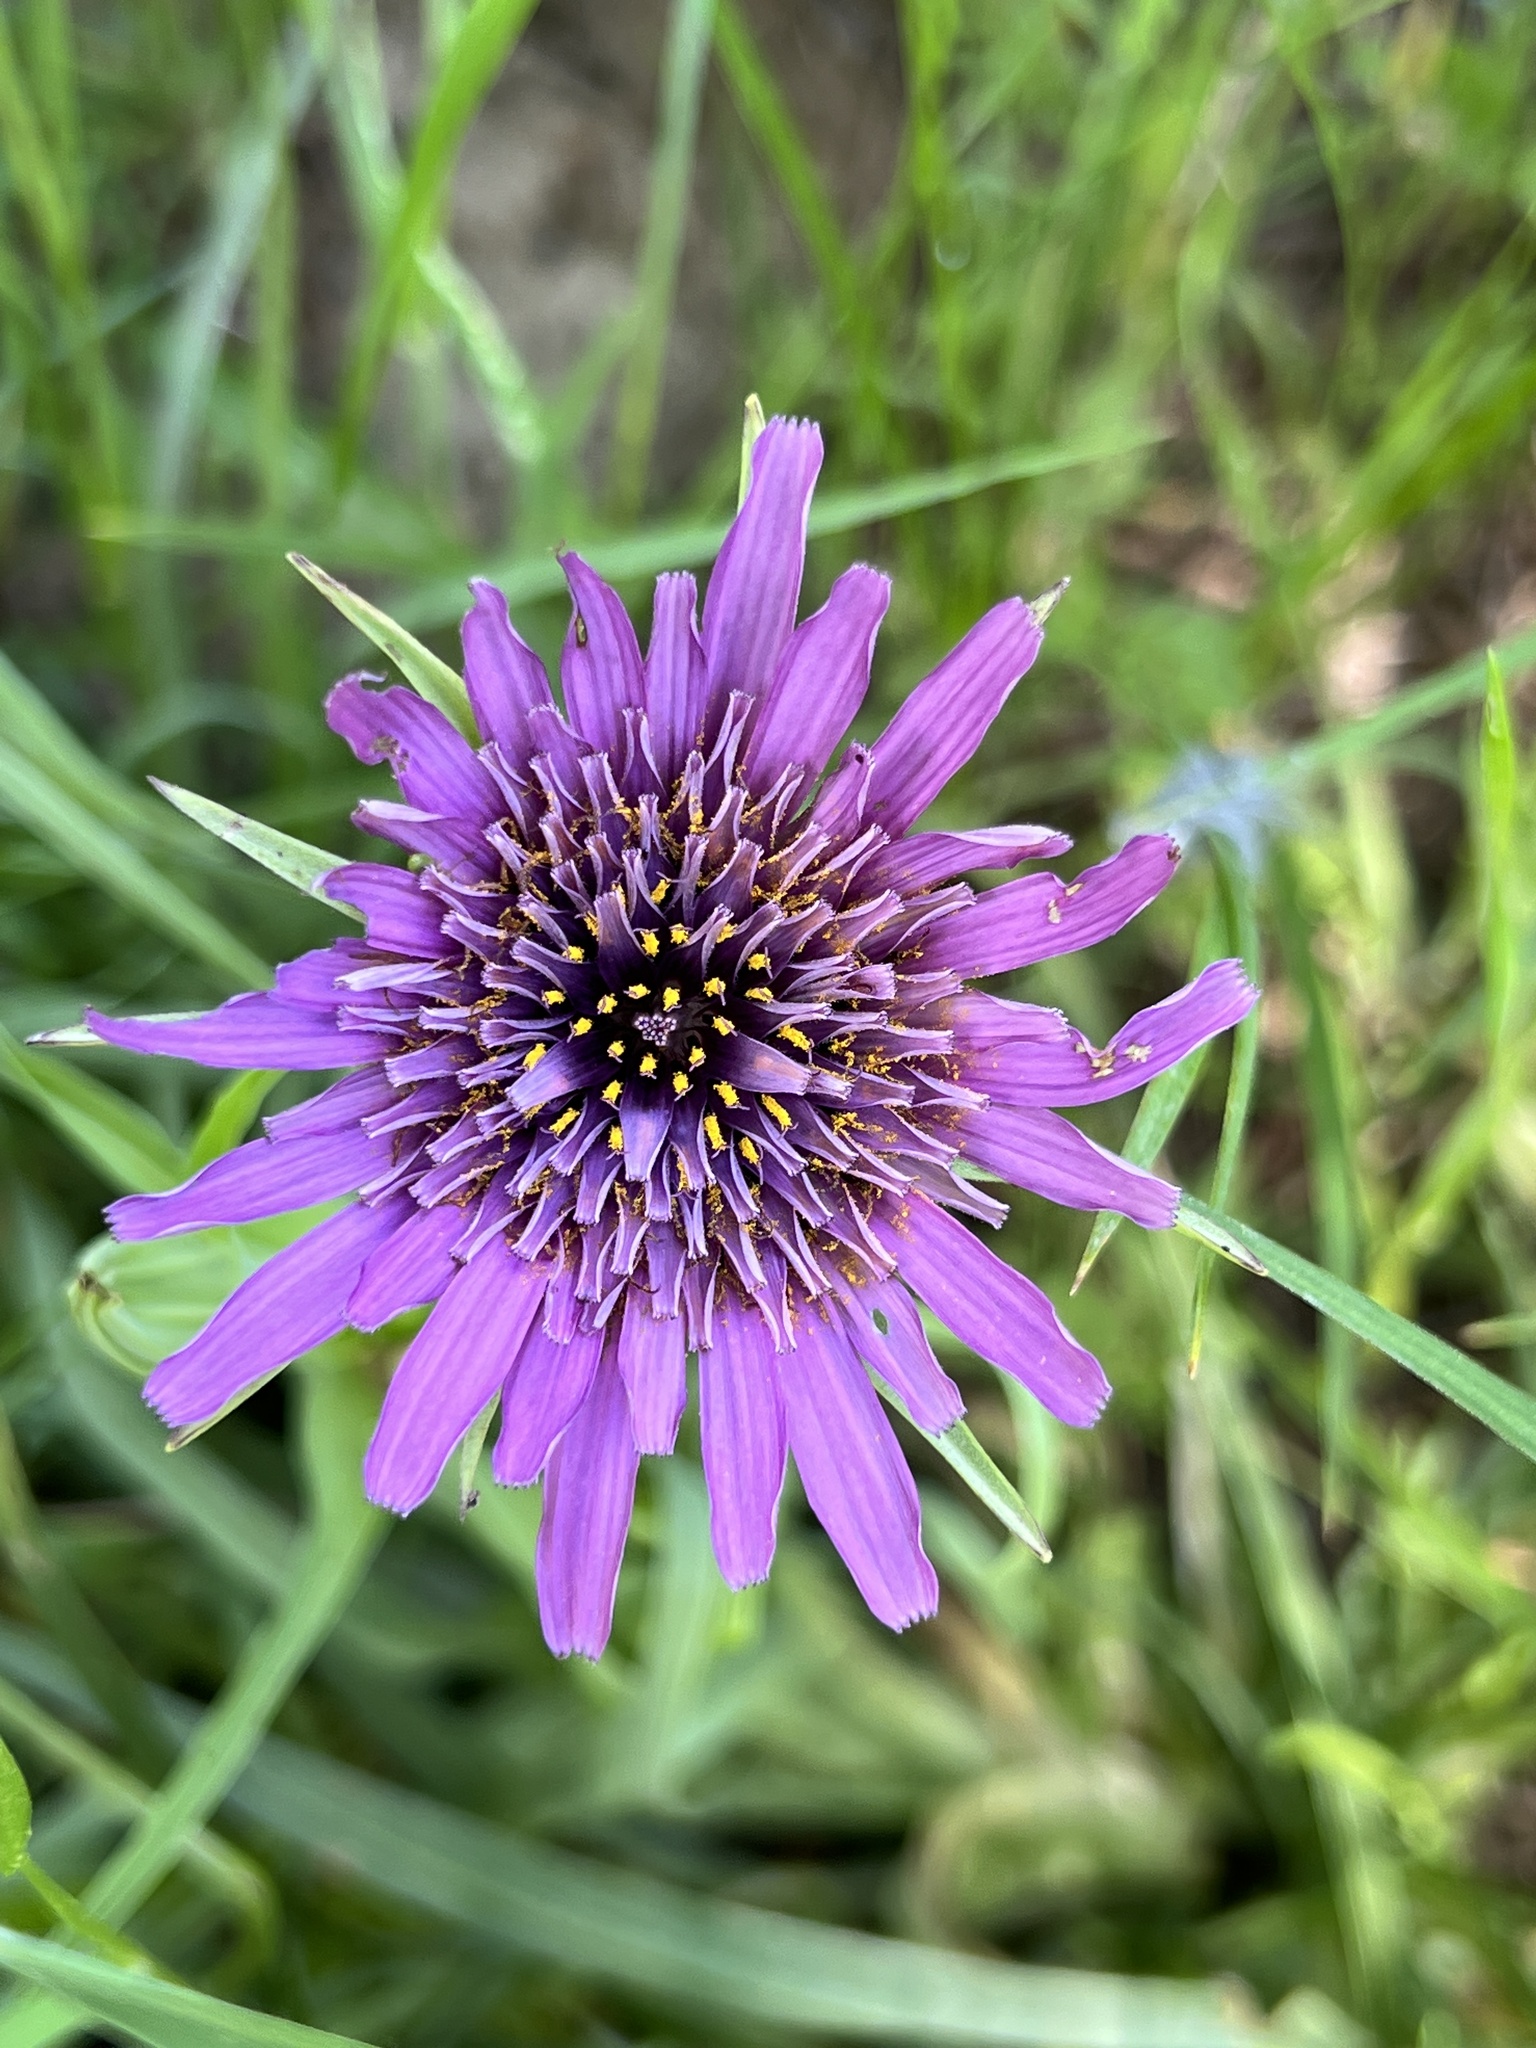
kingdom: Plantae
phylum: Tracheophyta
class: Magnoliopsida
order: Asterales
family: Asteraceae
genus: Tragopogon
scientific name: Tragopogon porrifolius
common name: Salsify
